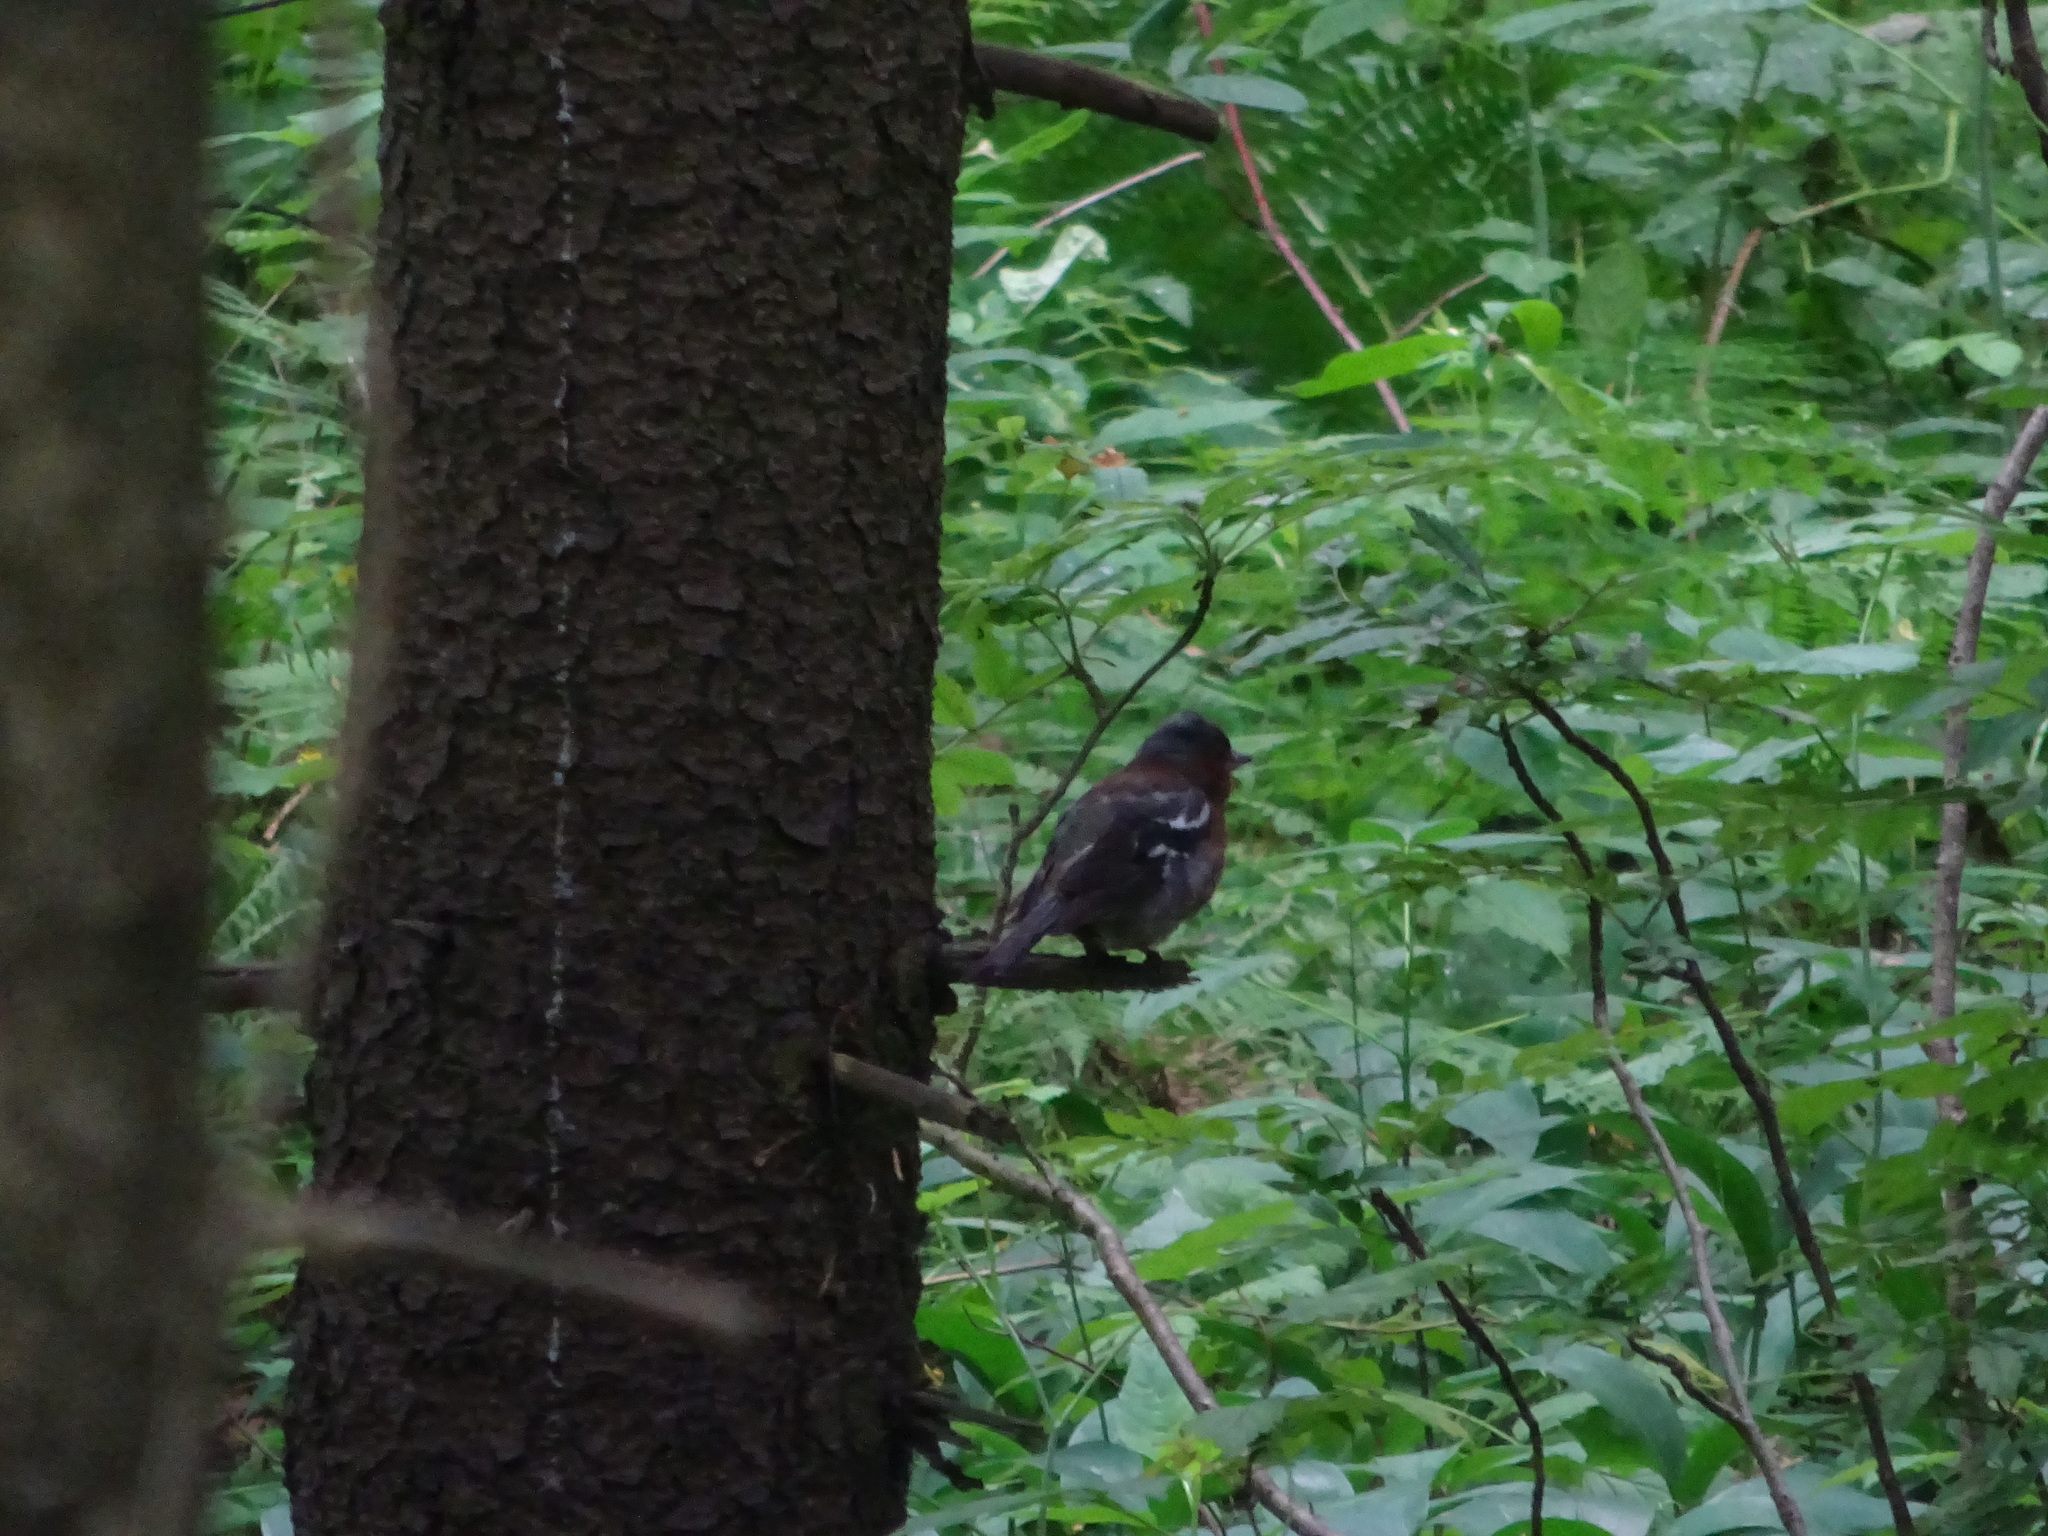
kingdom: Animalia
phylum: Chordata
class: Aves
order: Passeriformes
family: Fringillidae
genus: Fringilla
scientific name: Fringilla coelebs
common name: Common chaffinch
